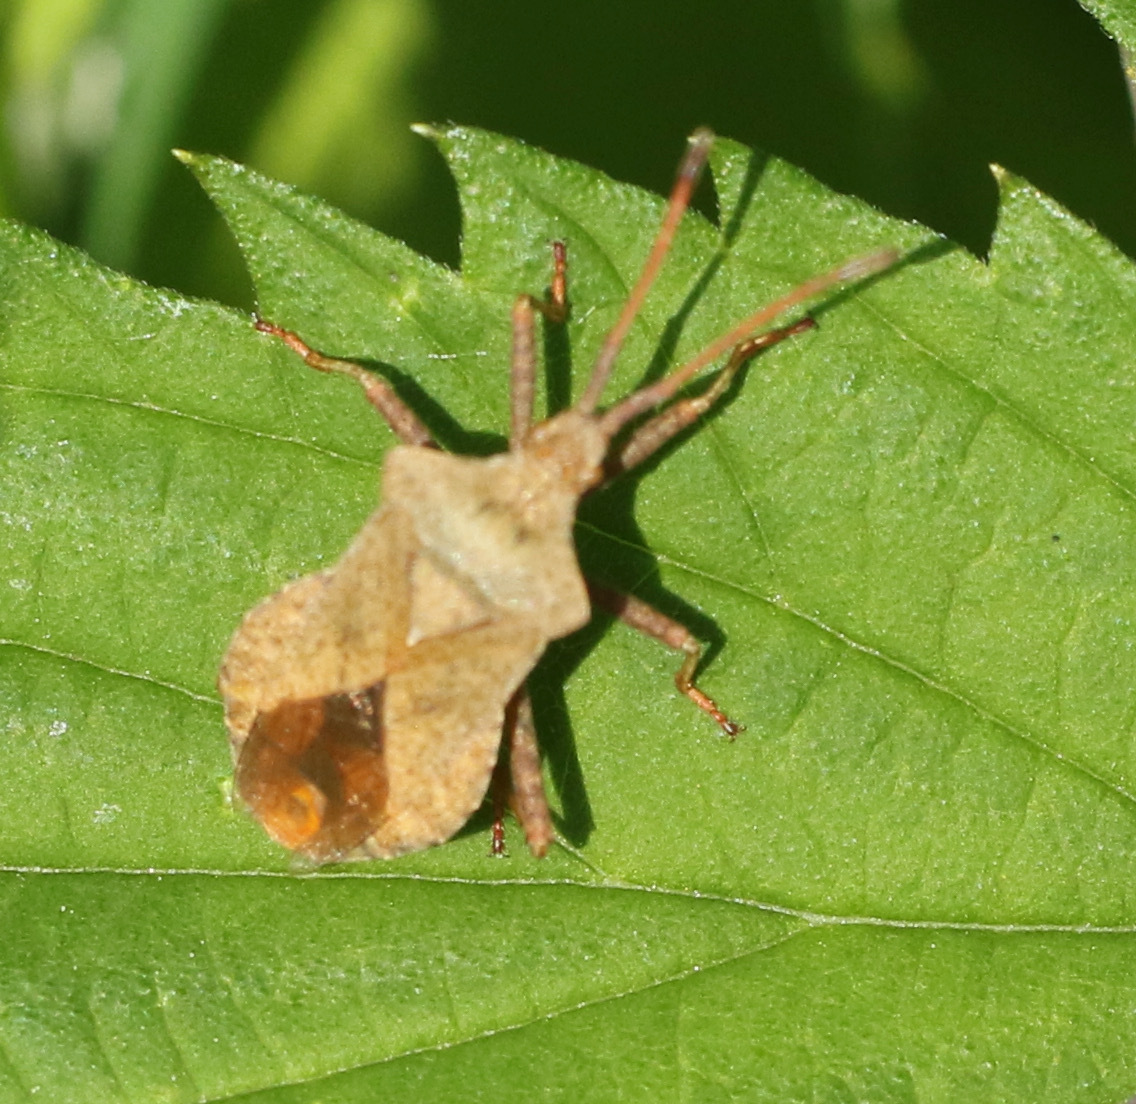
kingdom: Animalia
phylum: Arthropoda
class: Insecta
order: Hemiptera
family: Coreidae
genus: Coreus
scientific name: Coreus marginatus
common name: Dock bug
